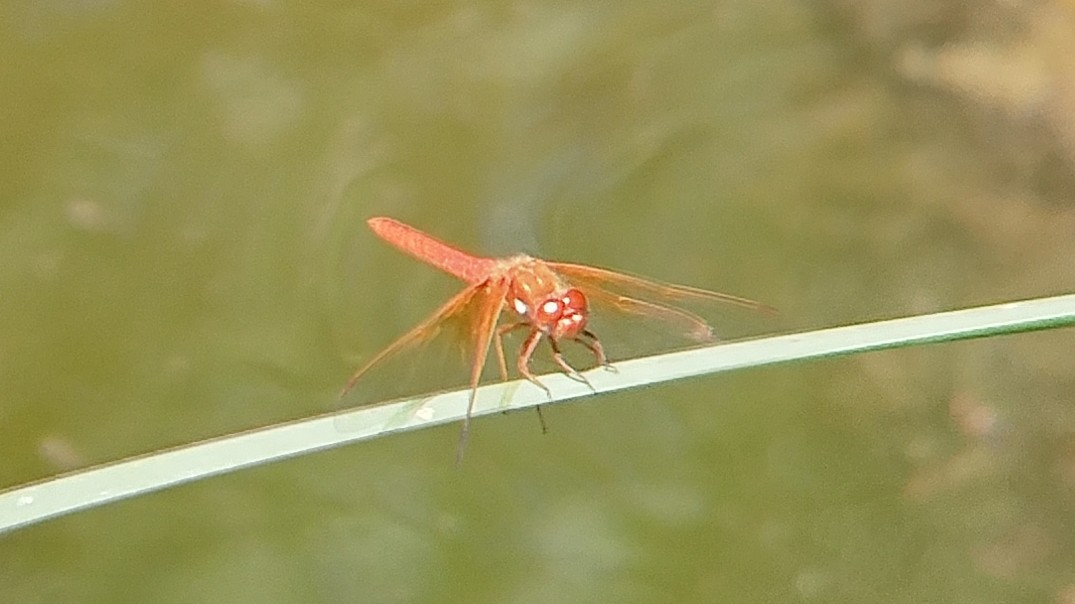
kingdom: Animalia
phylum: Arthropoda
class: Insecta
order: Odonata
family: Libellulidae
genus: Sympetrum
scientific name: Sympetrum illotum
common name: Cardinal meadowhawk
